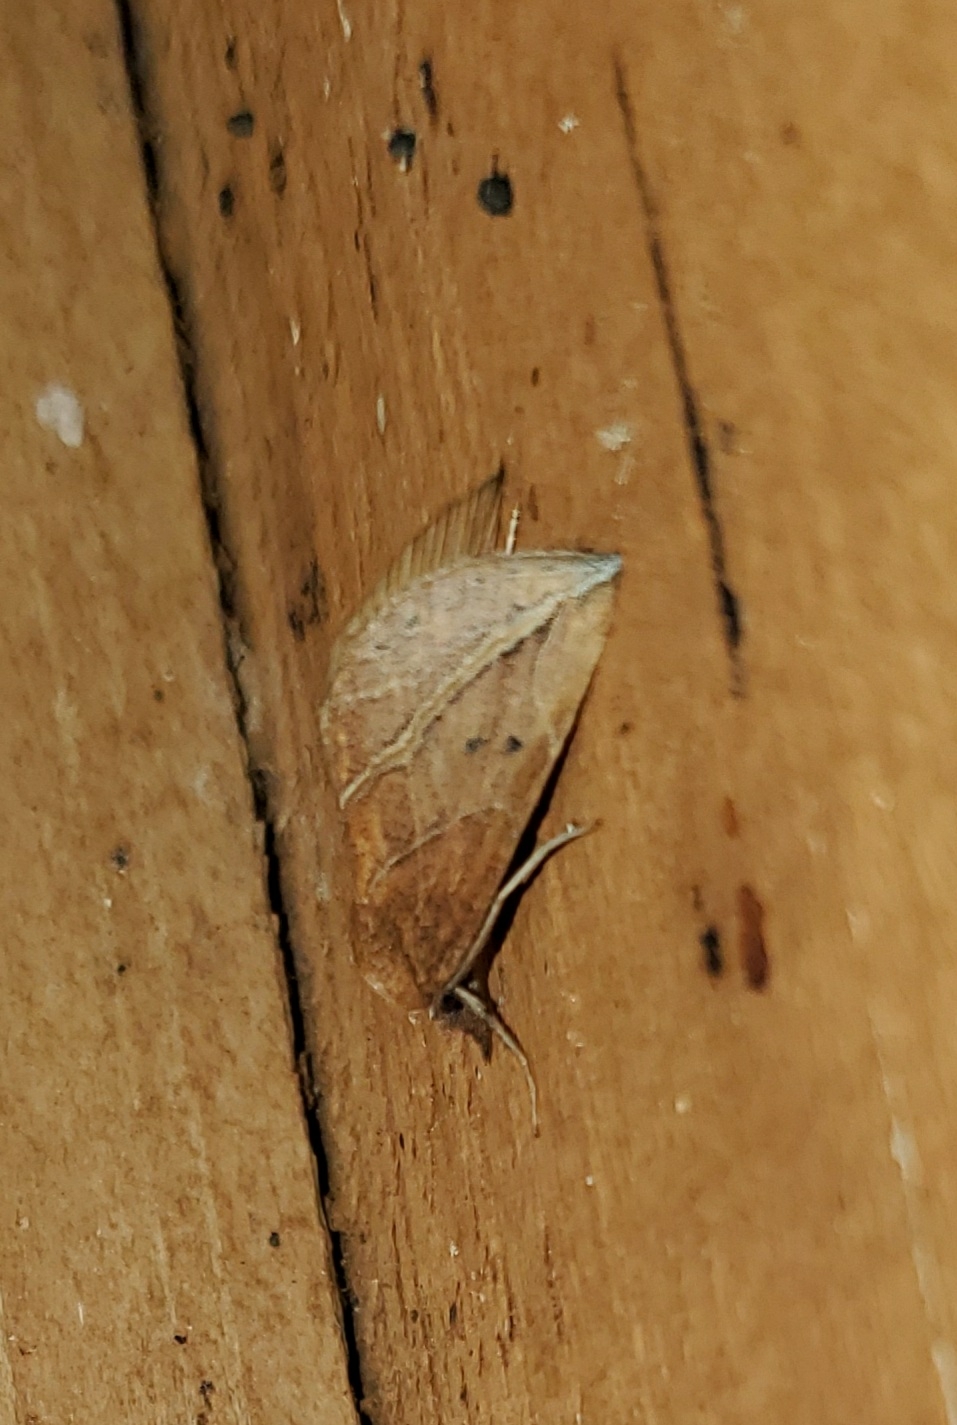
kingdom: Animalia
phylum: Arthropoda
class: Insecta
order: Lepidoptera
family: Erebidae
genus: Phyprosopus
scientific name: Phyprosopus callitrichoides
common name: Curved-lined owlet
